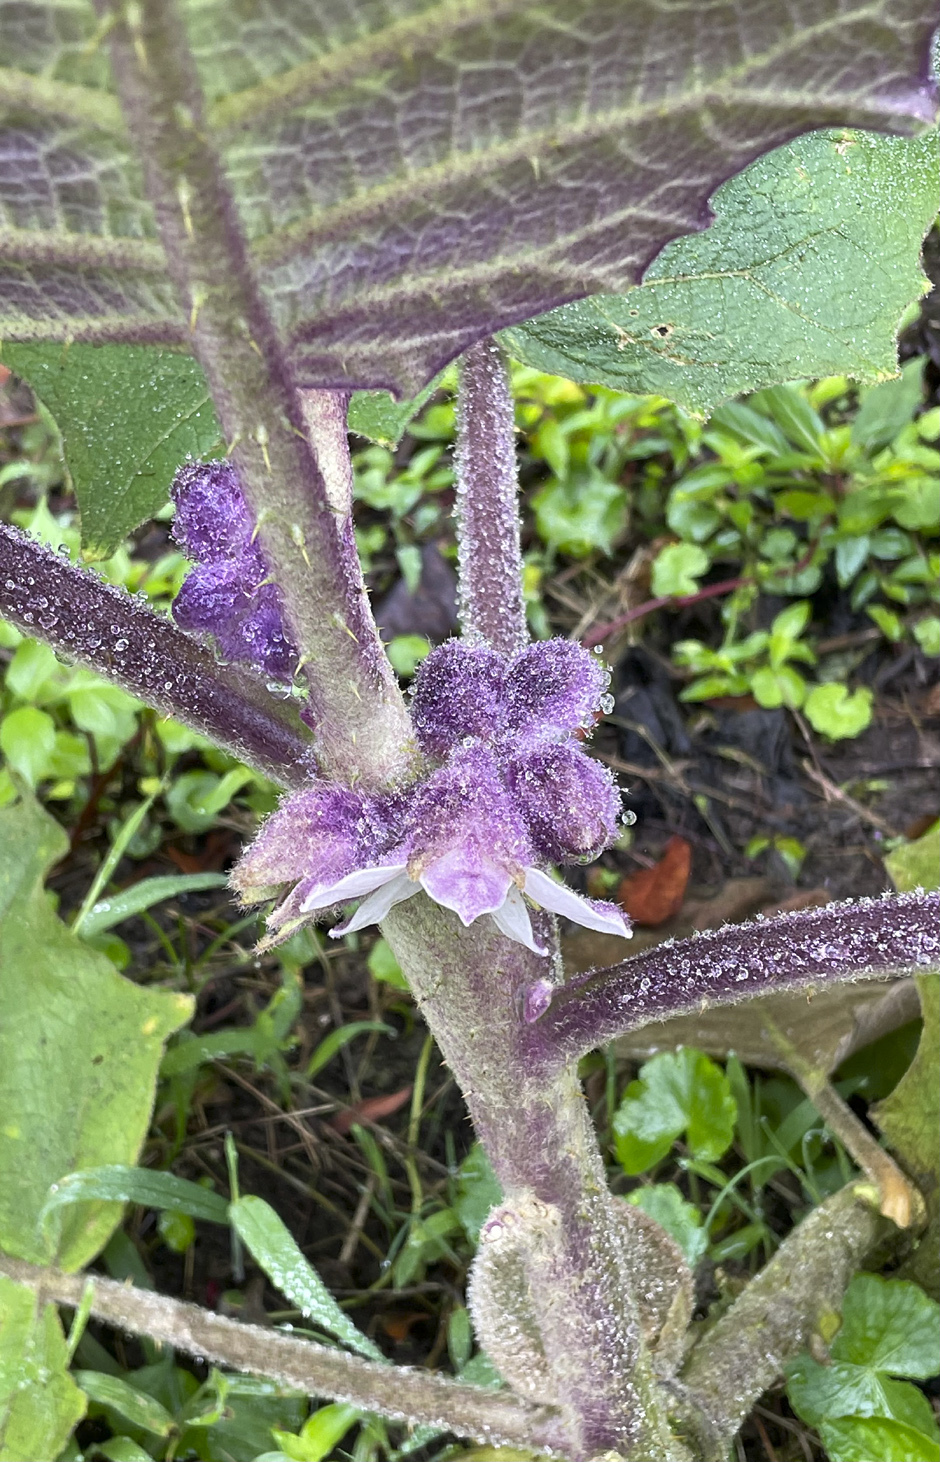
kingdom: Plantae
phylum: Tracheophyta
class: Magnoliopsida
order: Solanales
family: Solanaceae
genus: Solanum
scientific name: Solanum quitoense
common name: Quito-orange
